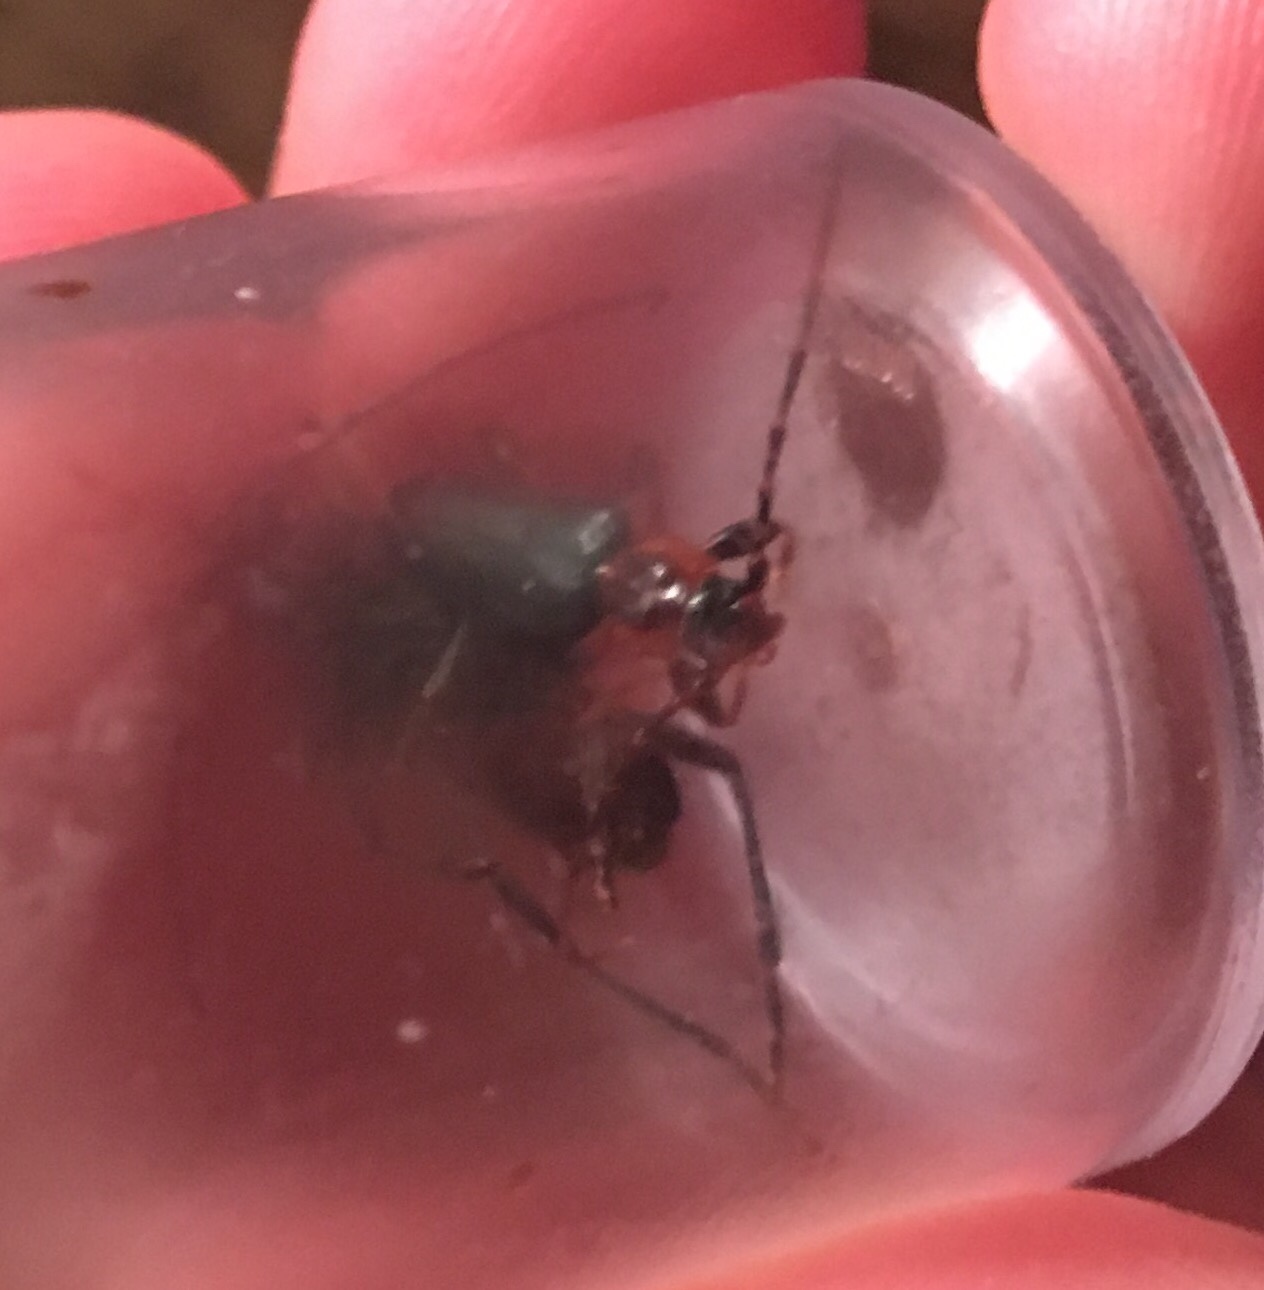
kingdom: Animalia
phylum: Arthropoda
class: Insecta
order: Coleoptera
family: Cerambycidae
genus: Phymatodes
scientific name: Phymatodes testaceus
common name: Long-horned beetle
